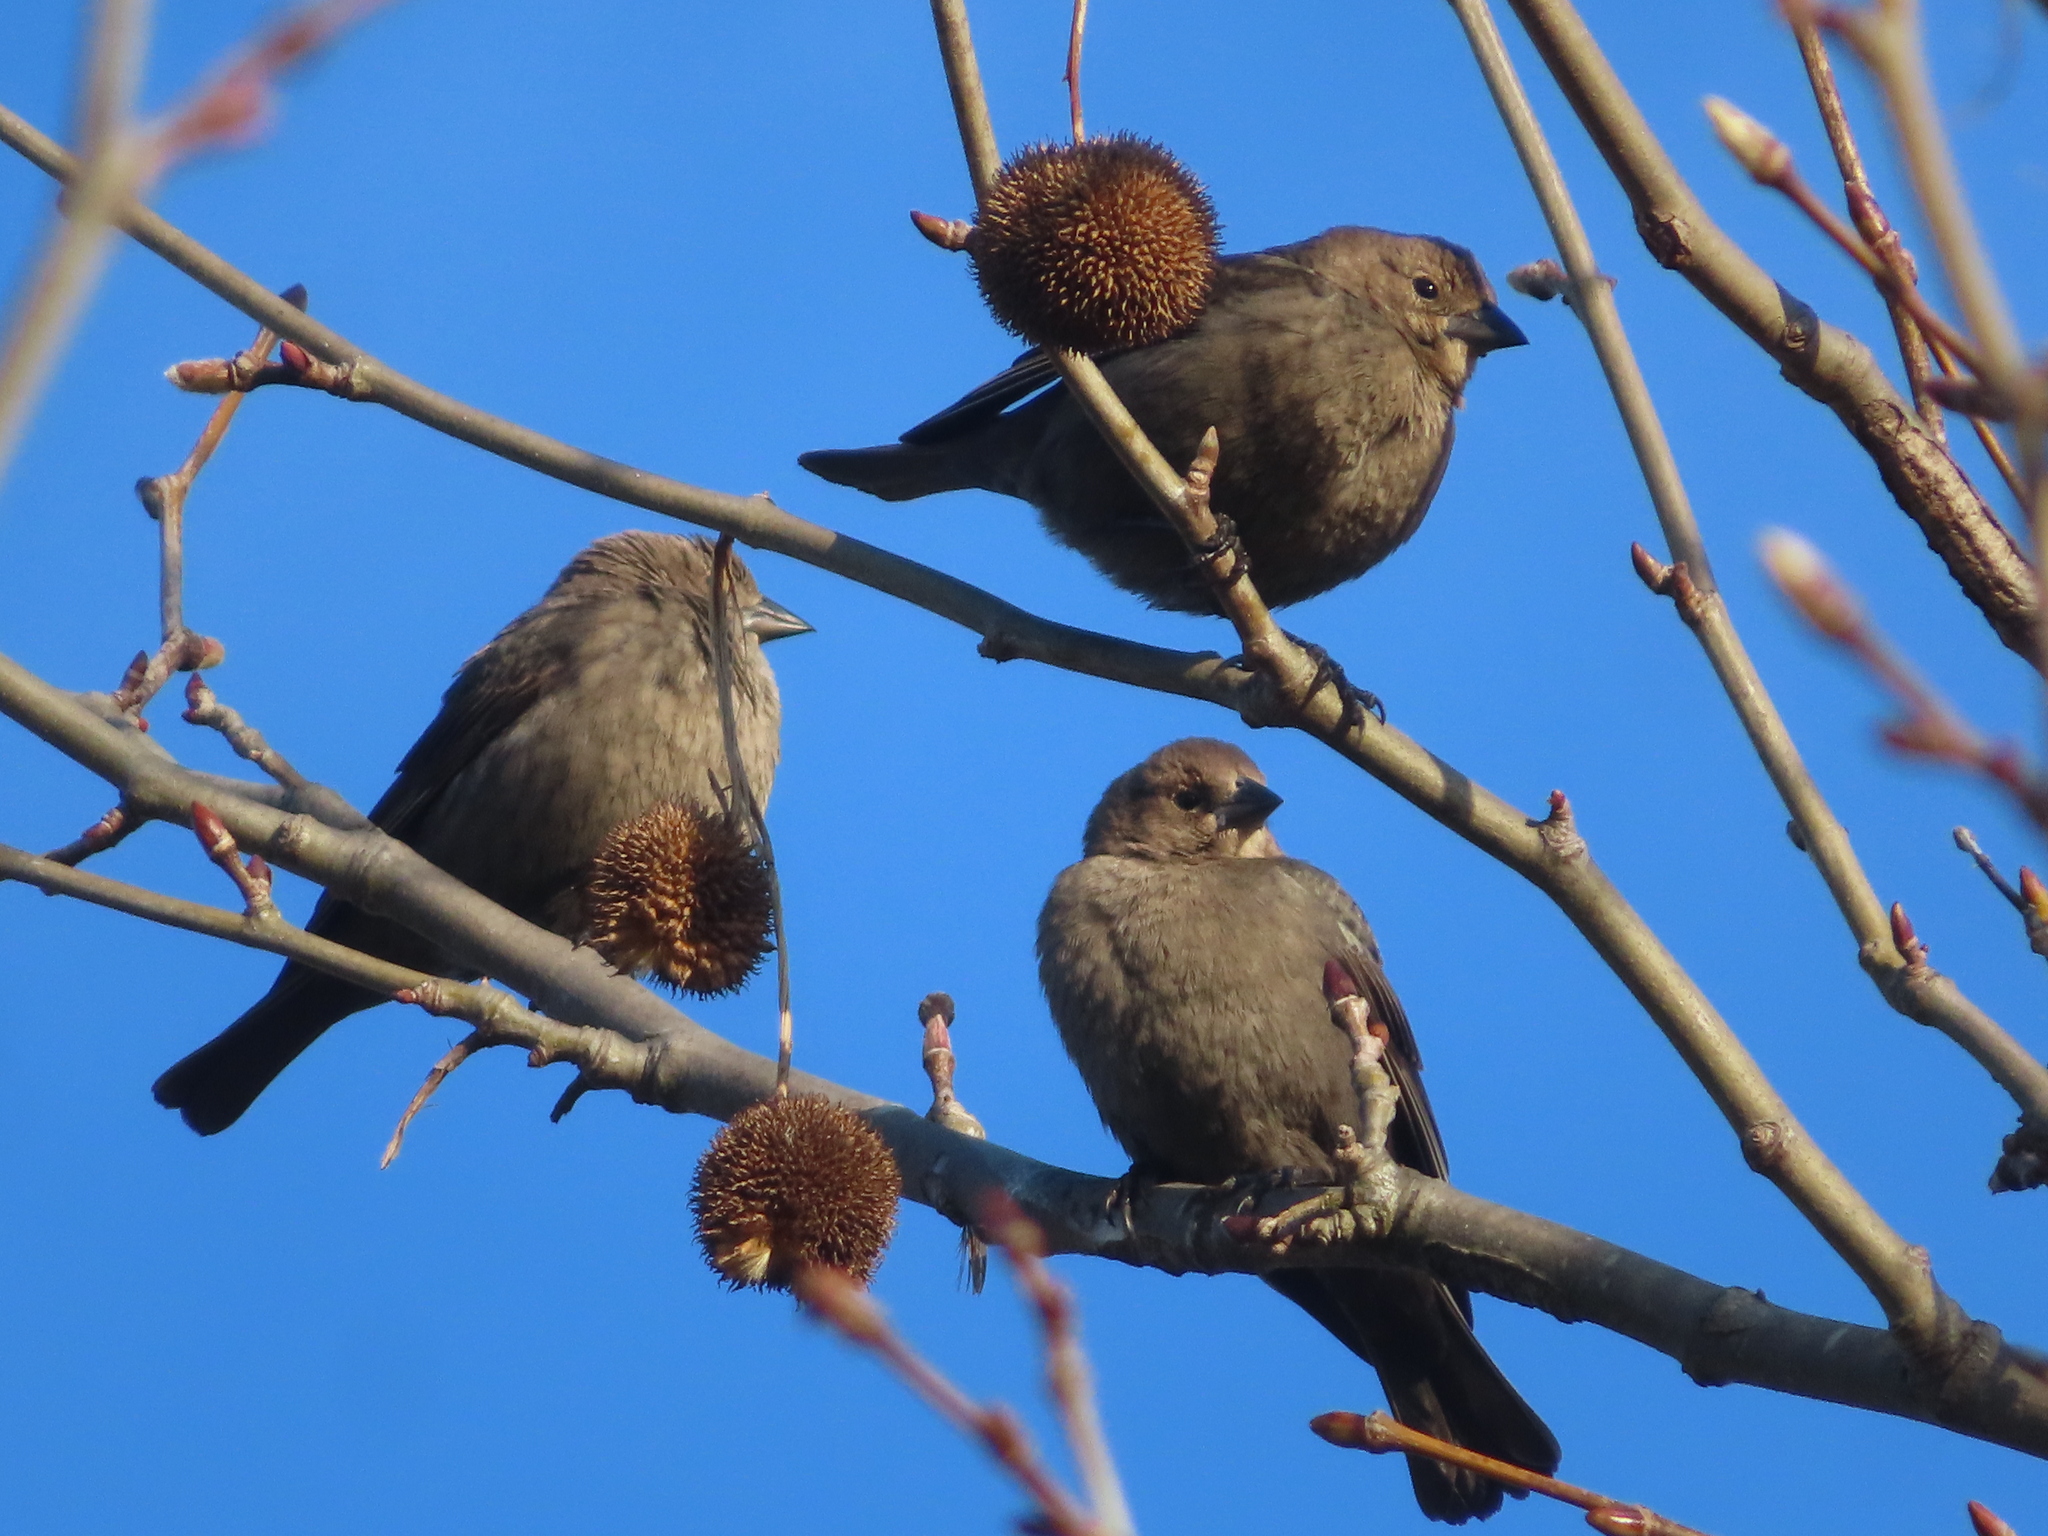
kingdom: Animalia
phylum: Chordata
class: Aves
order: Passeriformes
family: Icteridae
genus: Molothrus
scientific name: Molothrus ater
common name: Brown-headed cowbird
